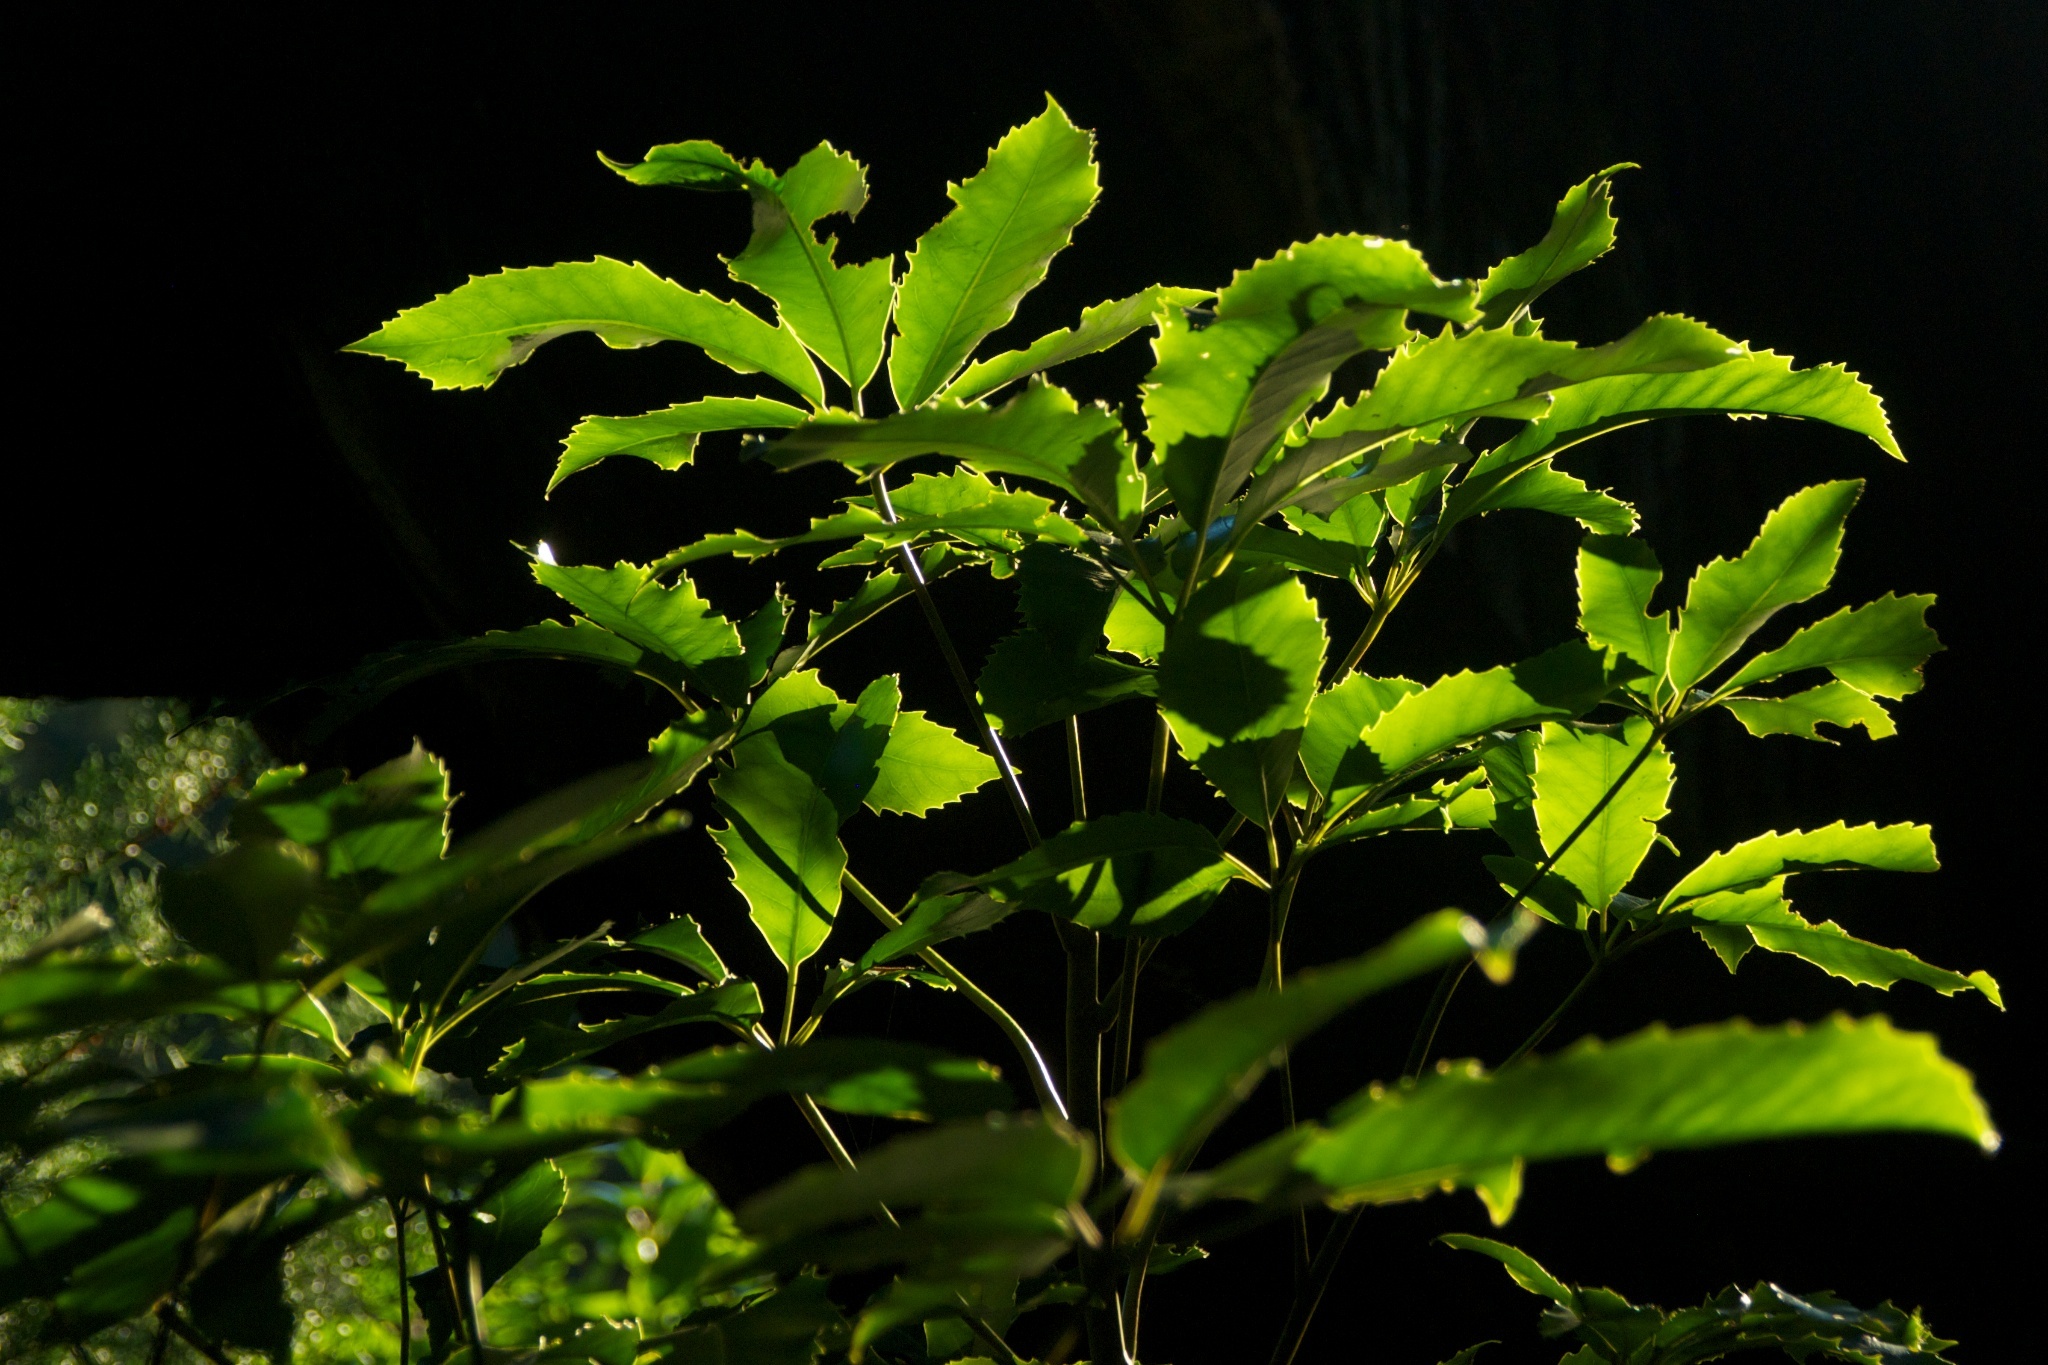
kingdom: Plantae
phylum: Tracheophyta
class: Magnoliopsida
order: Apiales
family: Araliaceae
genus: Neopanax
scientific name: Neopanax arboreus
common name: Five-fingers
